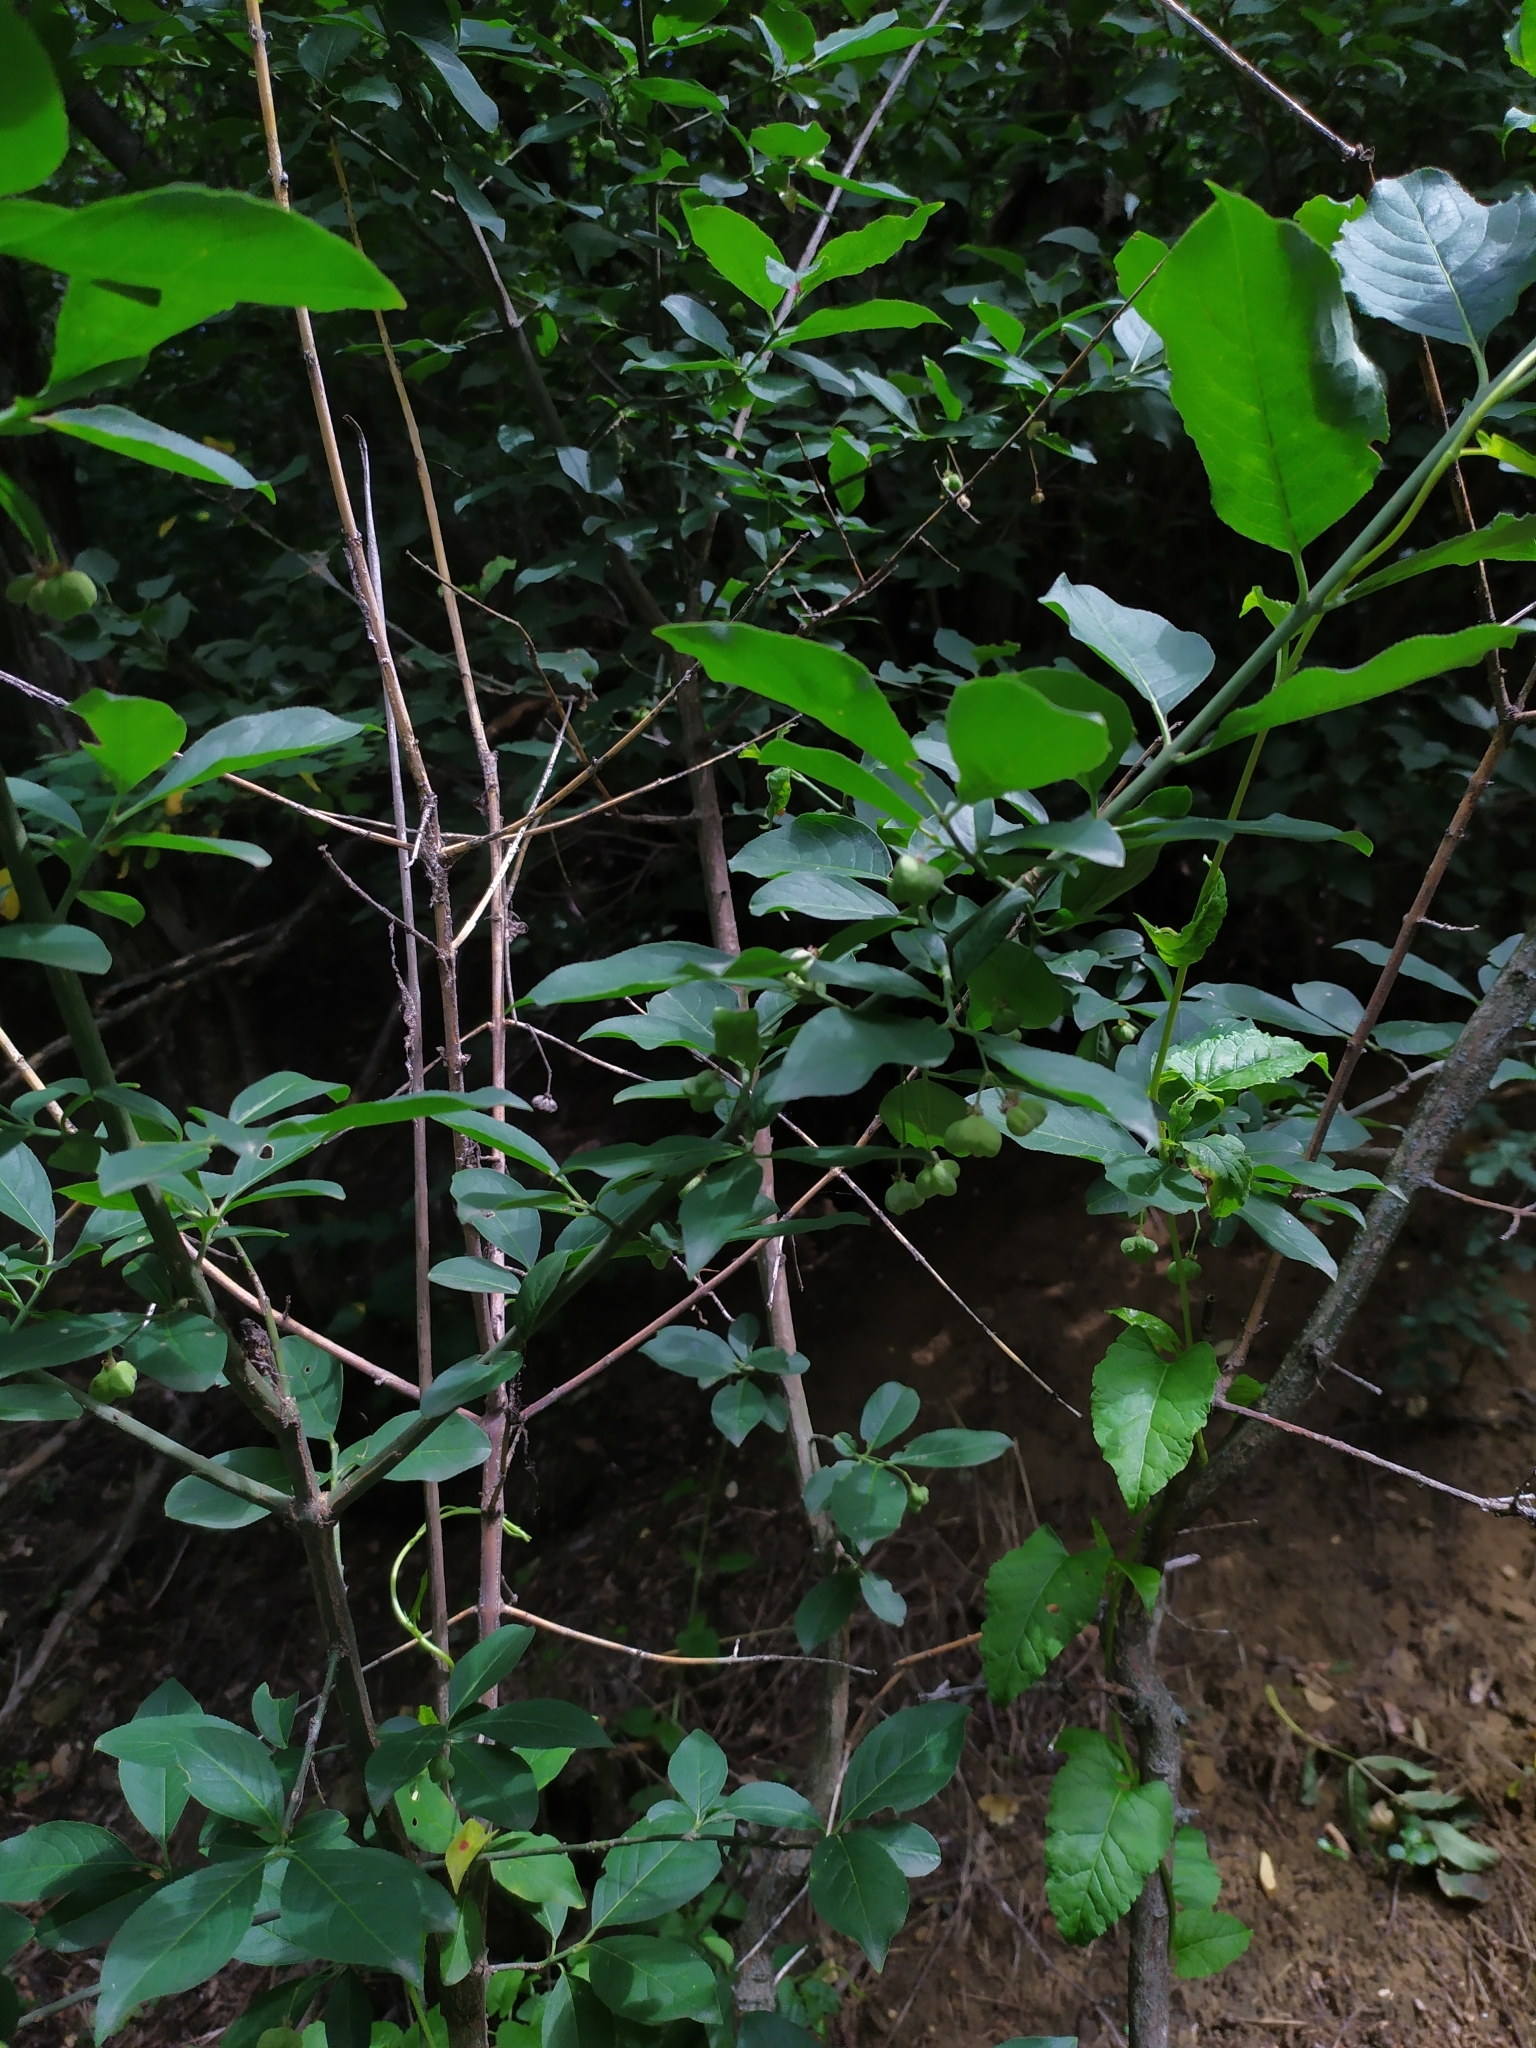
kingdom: Plantae
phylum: Tracheophyta
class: Magnoliopsida
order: Celastrales
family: Celastraceae
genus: Euonymus
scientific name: Euonymus europaeus
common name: Spindle
